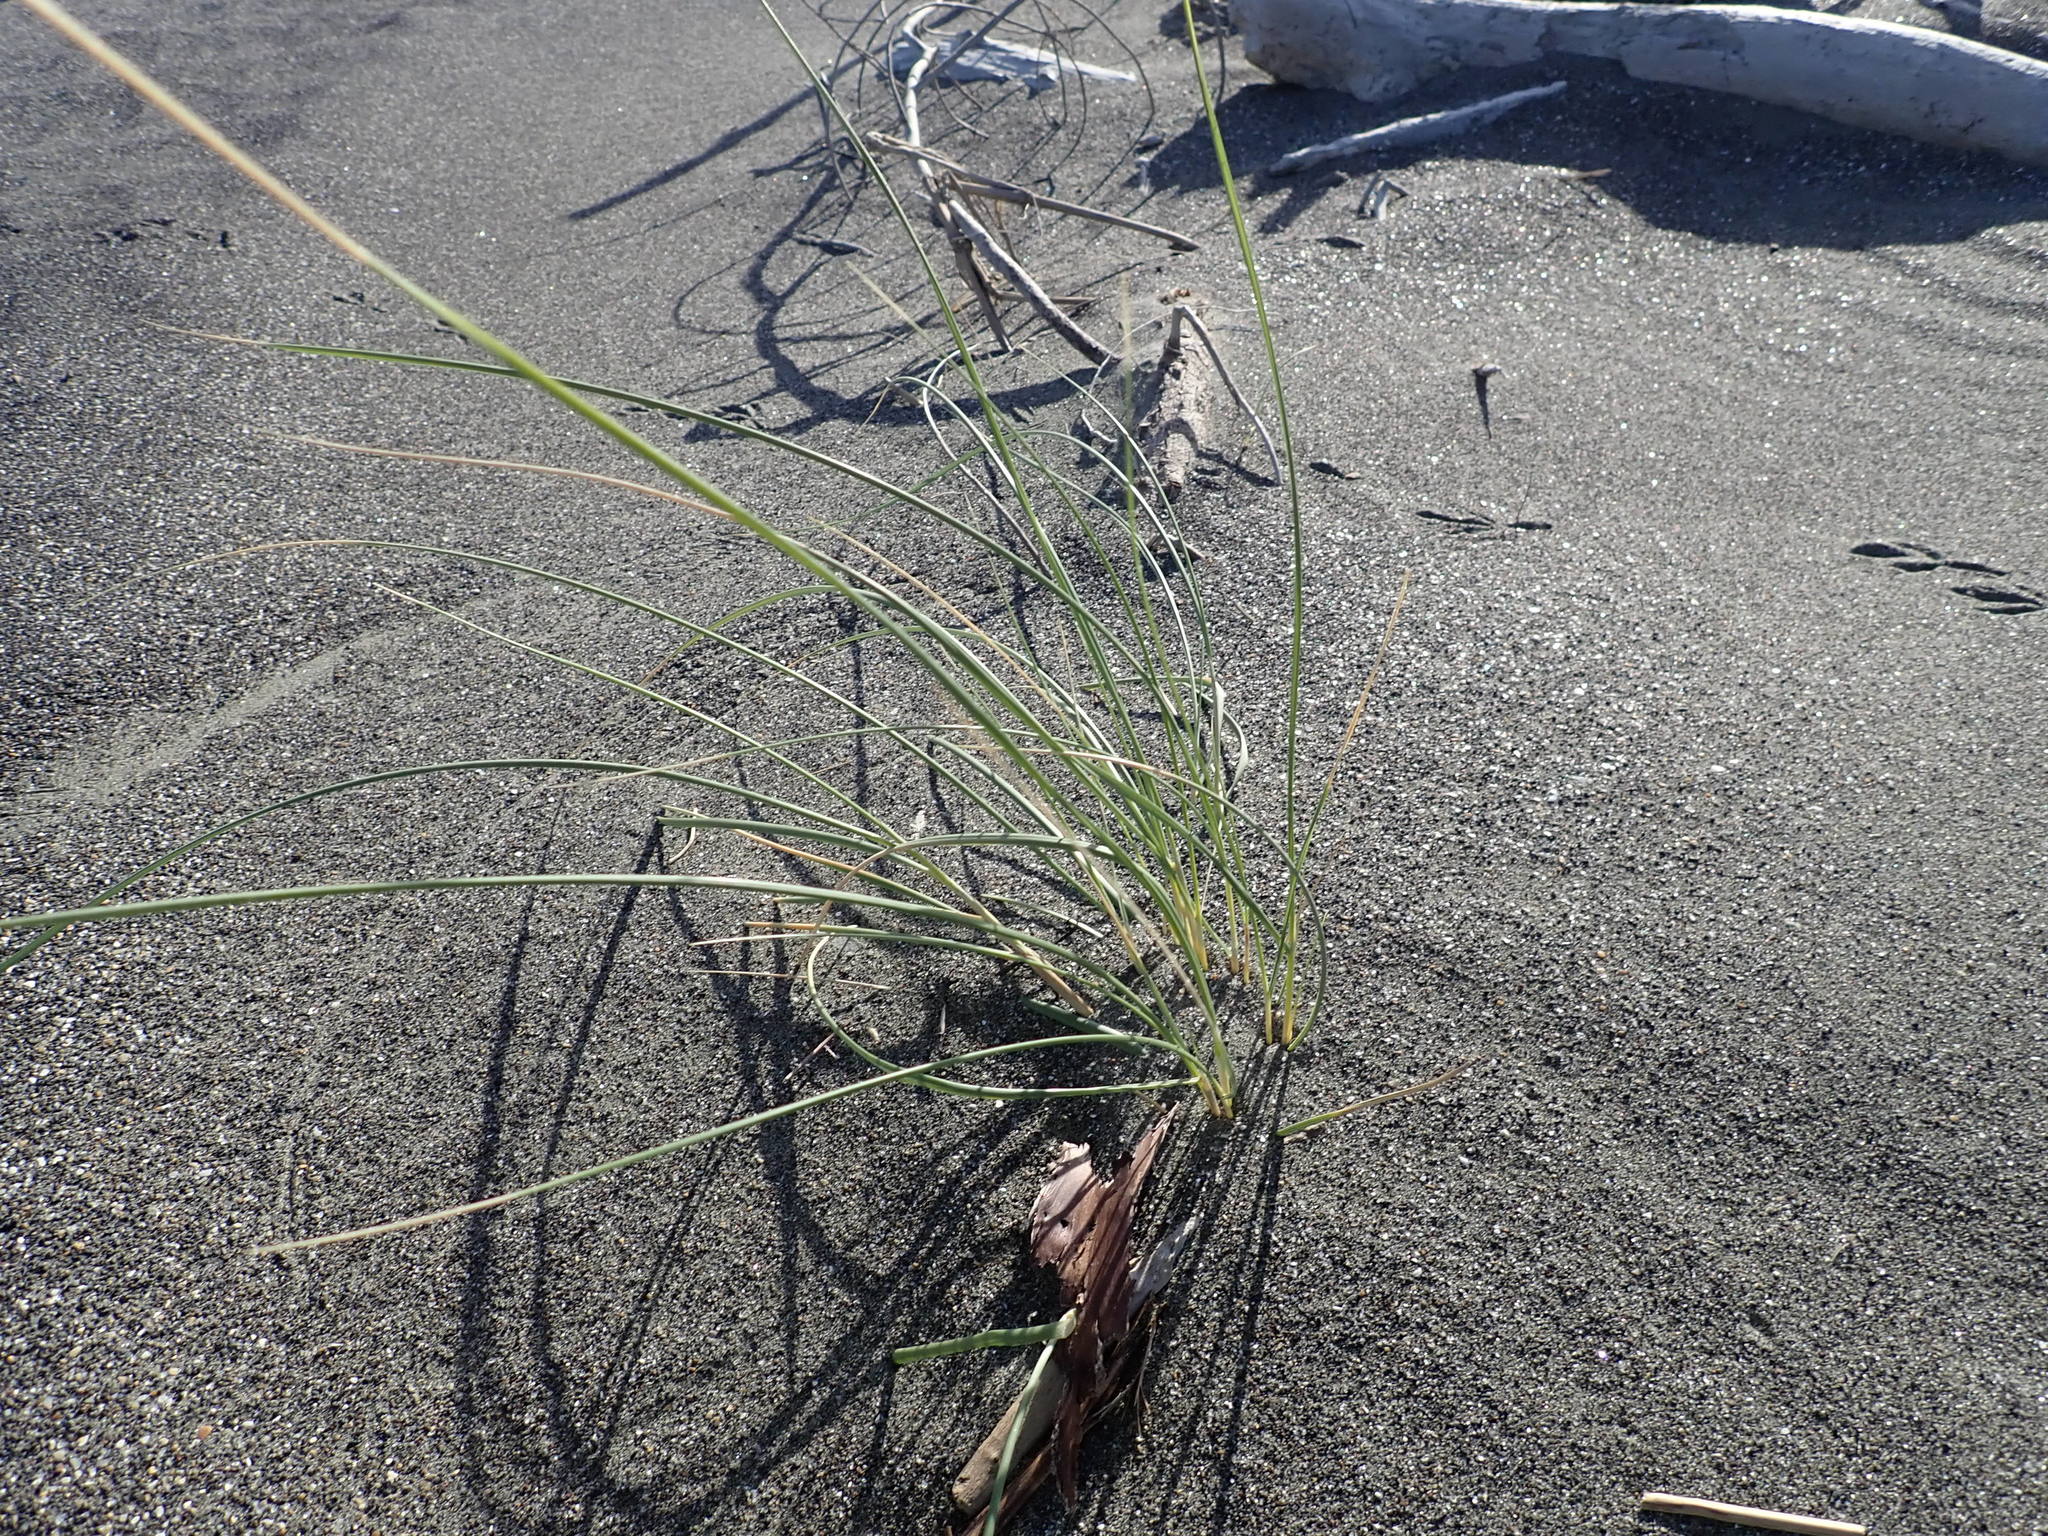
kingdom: Plantae
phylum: Tracheophyta
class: Liliopsida
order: Poales
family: Poaceae
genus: Calamagrostis
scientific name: Calamagrostis arenaria
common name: European beachgrass
